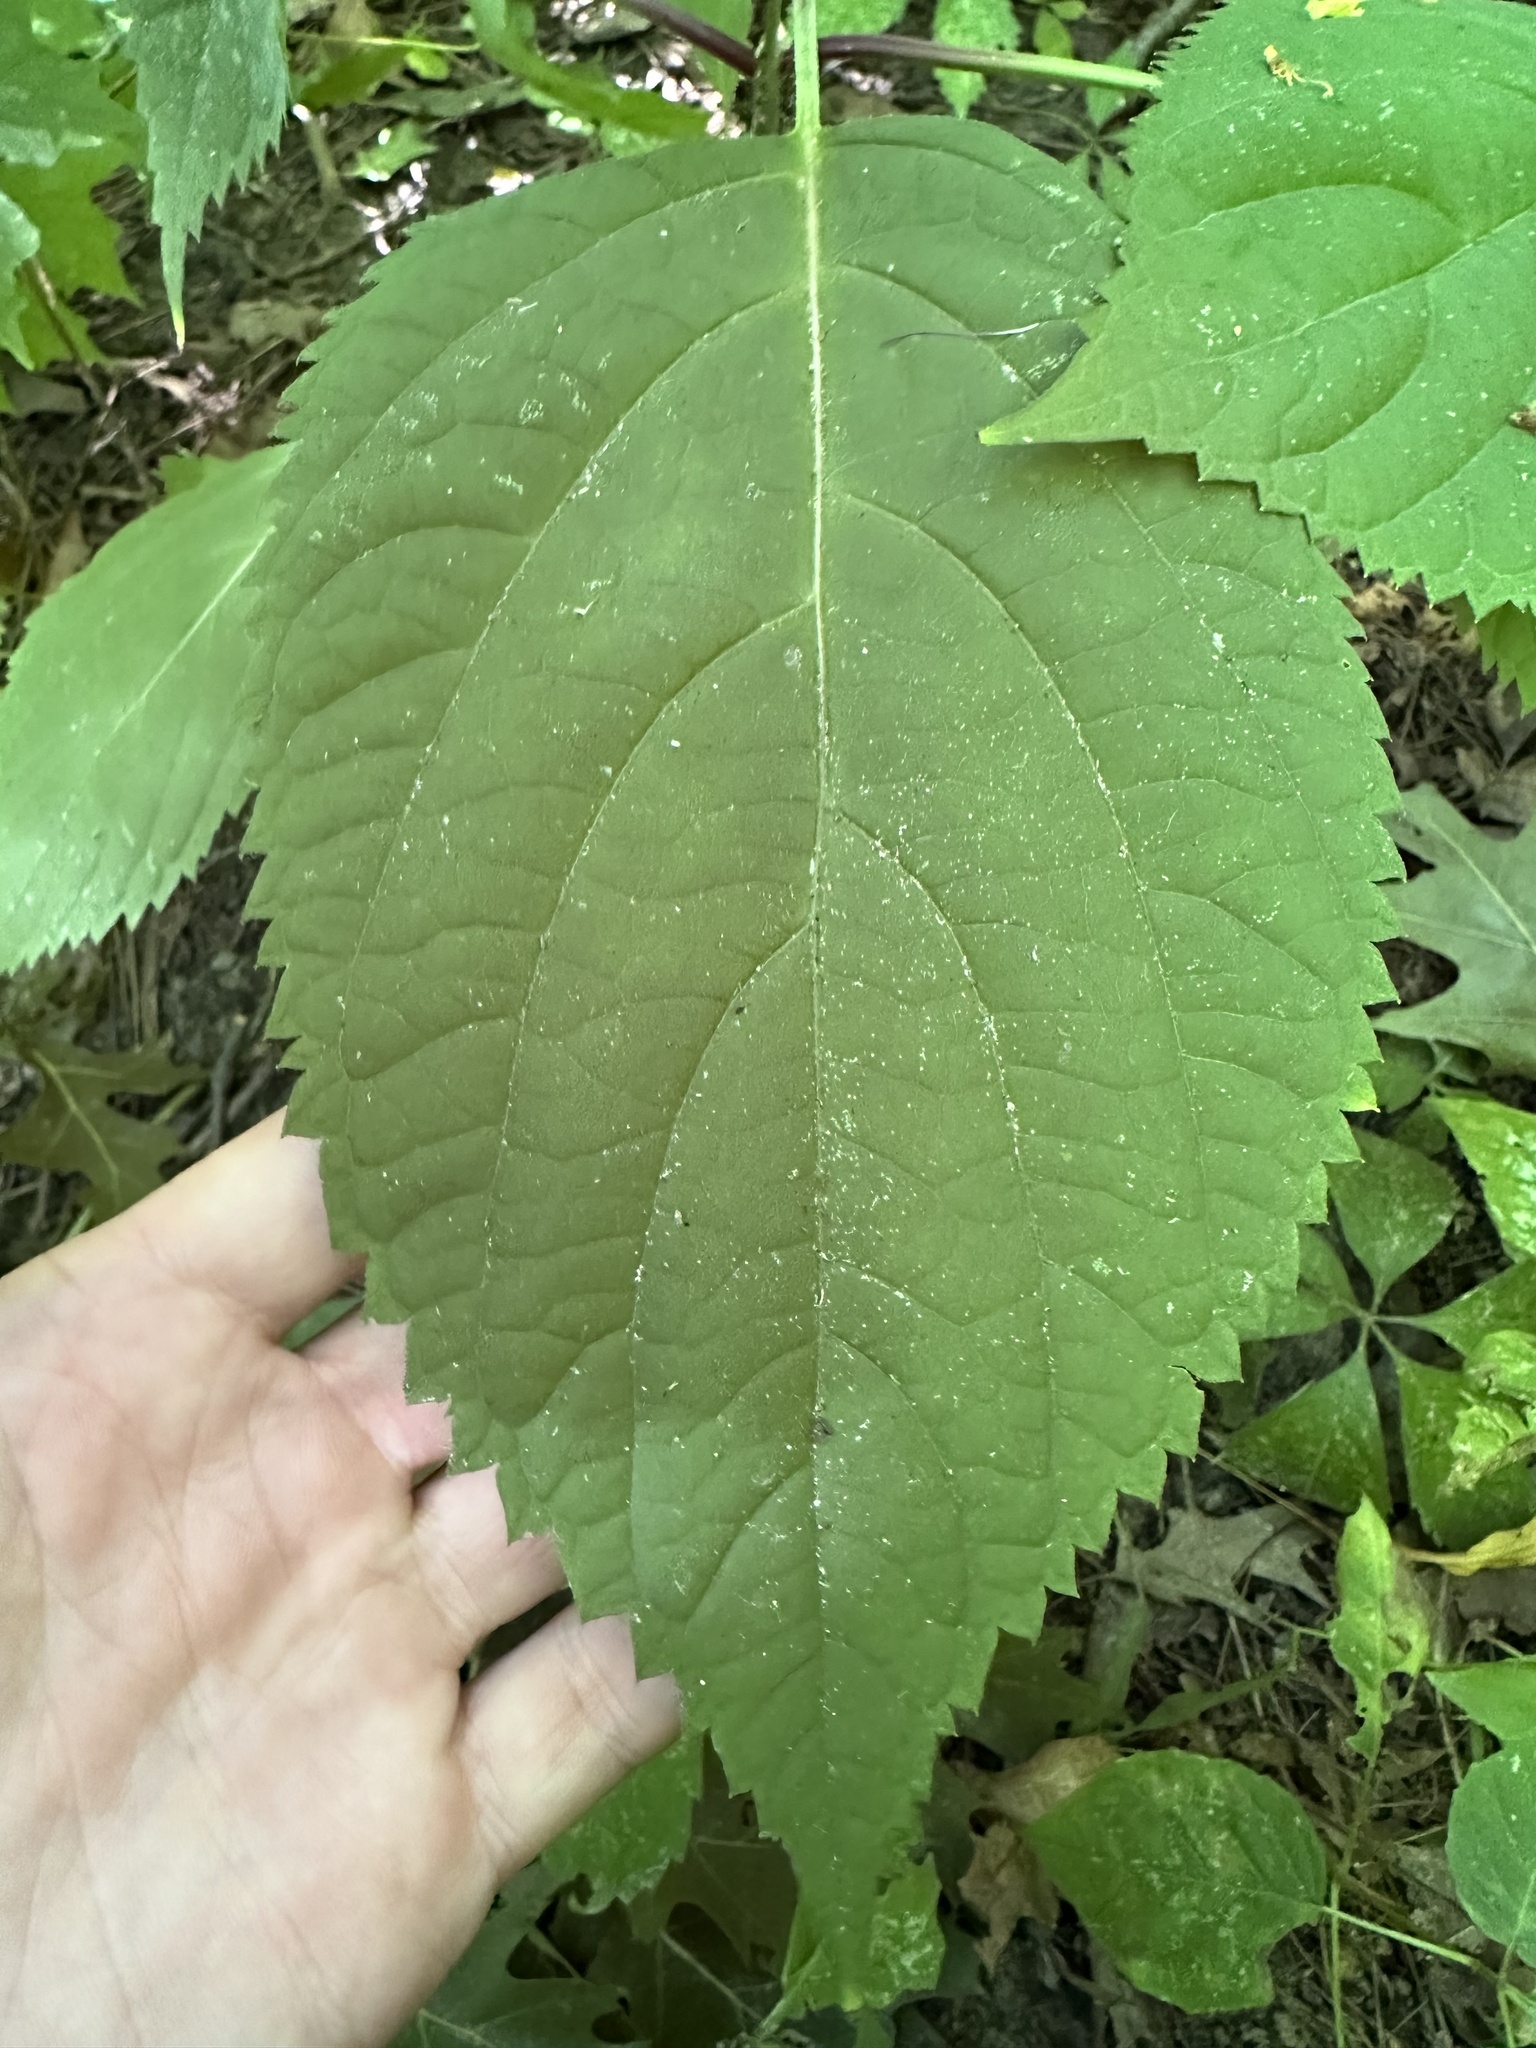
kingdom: Plantae
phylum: Tracheophyta
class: Magnoliopsida
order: Lamiales
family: Lamiaceae
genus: Collinsonia
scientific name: Collinsonia canadensis
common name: Northern horsebalm
